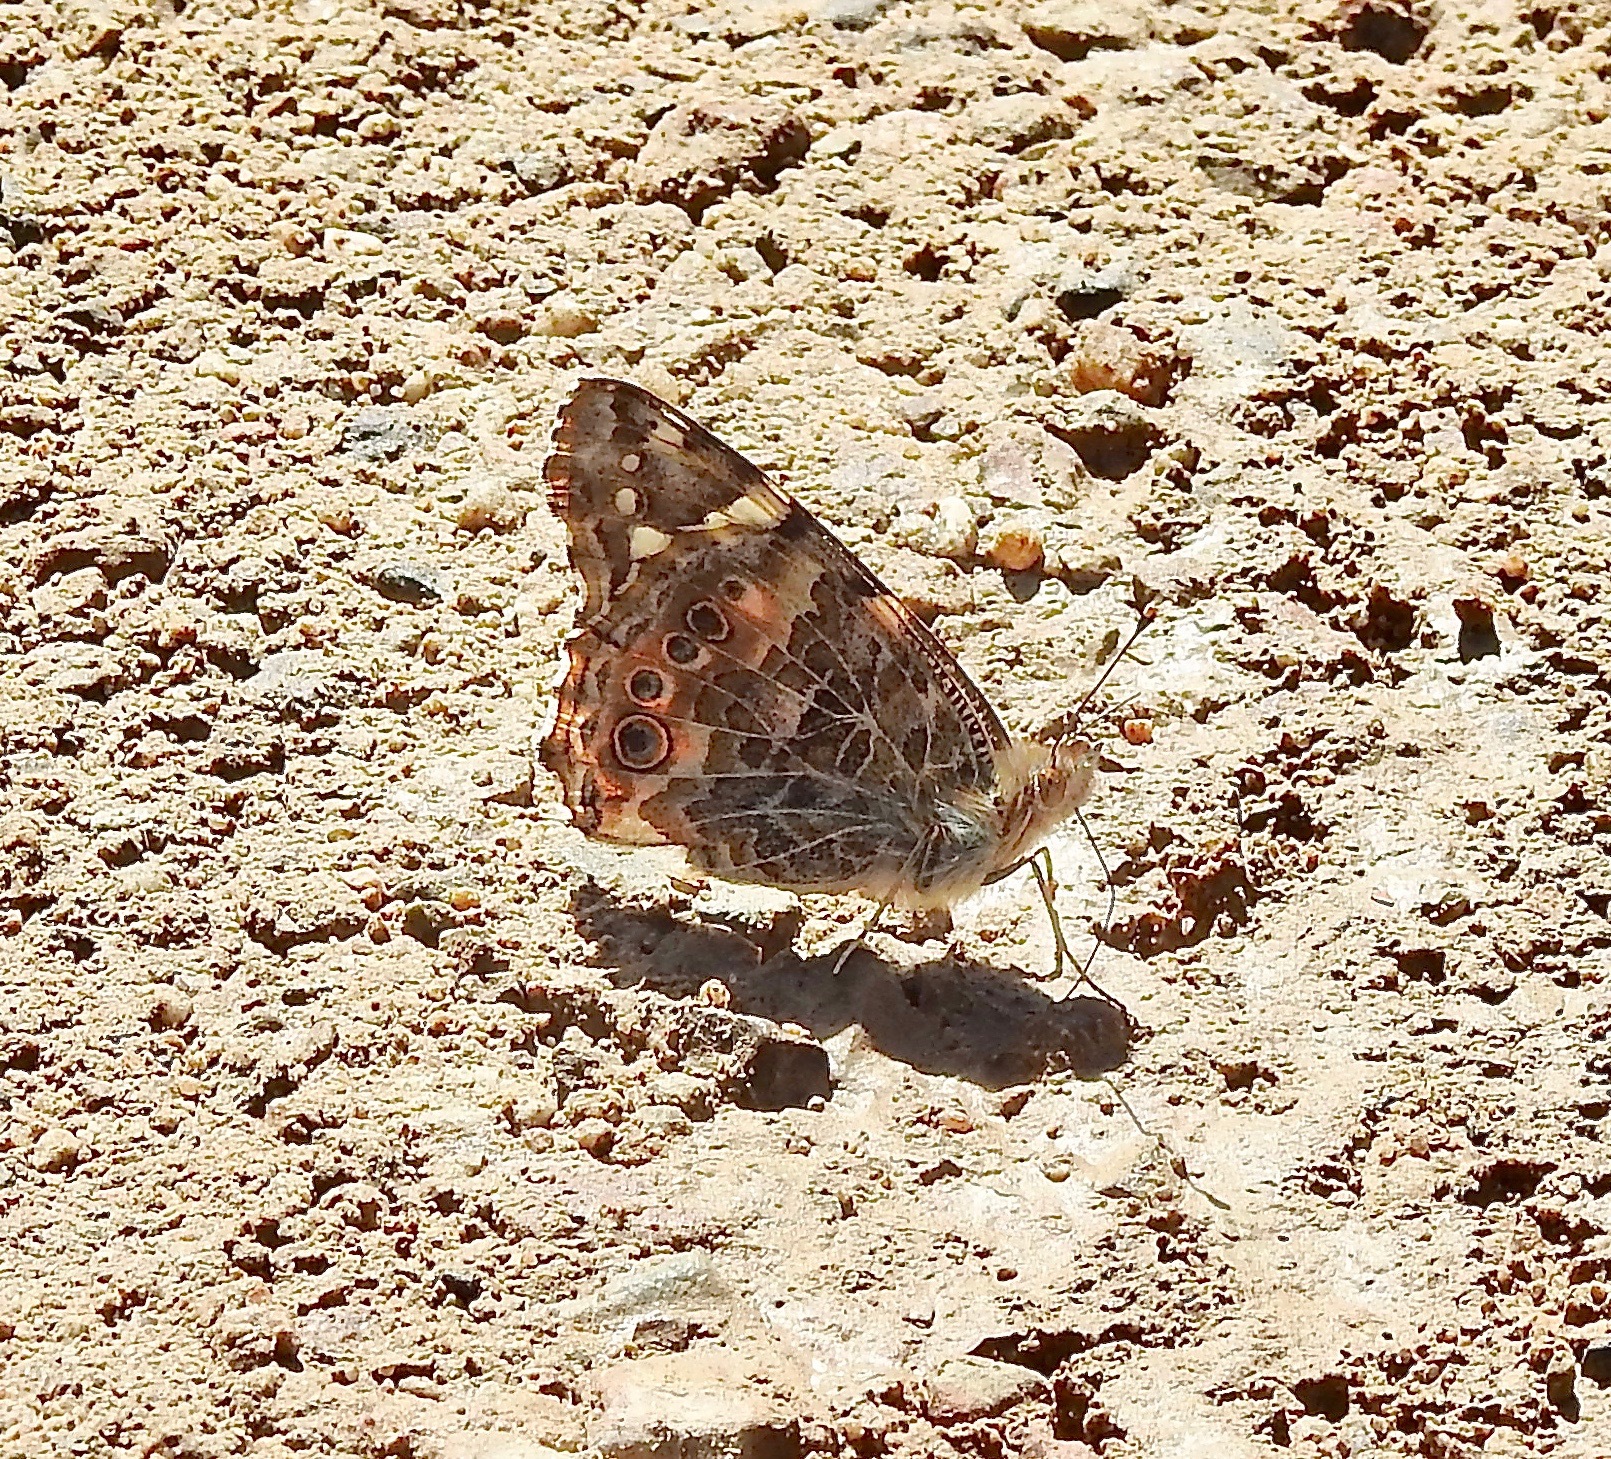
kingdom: Animalia
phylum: Arthropoda
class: Insecta
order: Lepidoptera
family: Nymphalidae
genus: Vanessa
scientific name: Vanessa cardui
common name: Painted lady
